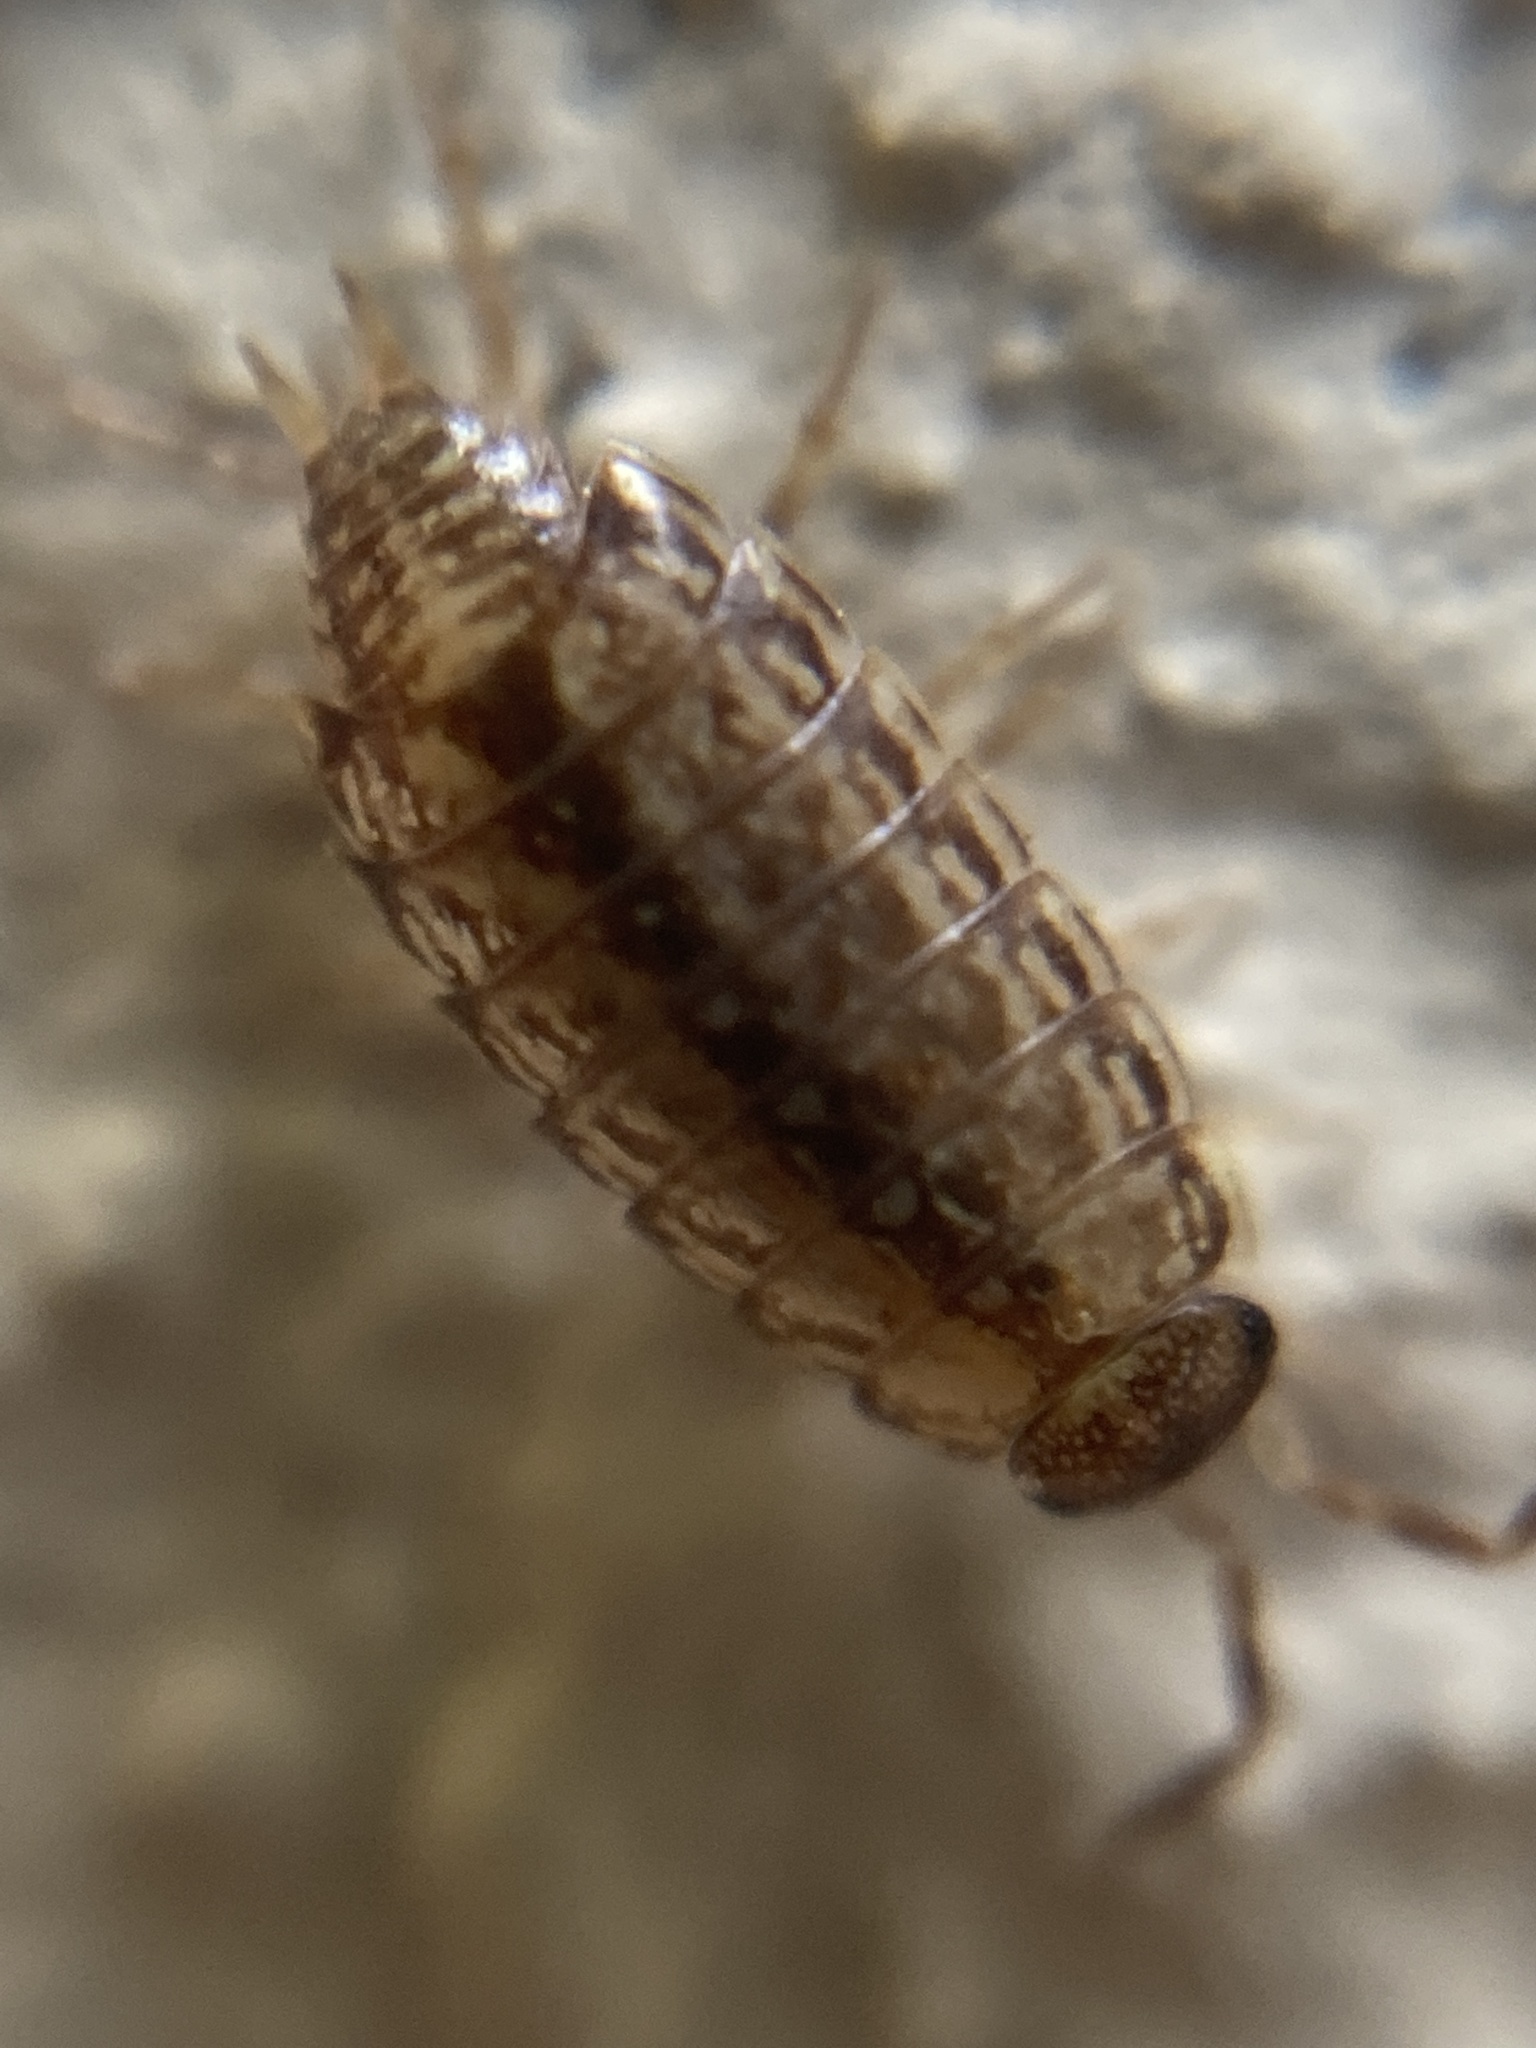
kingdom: Animalia
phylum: Arthropoda
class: Malacostraca
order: Isopoda
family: Philosciidae
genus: Philoscia
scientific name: Philoscia muscorum
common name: Common striped woodlouse
